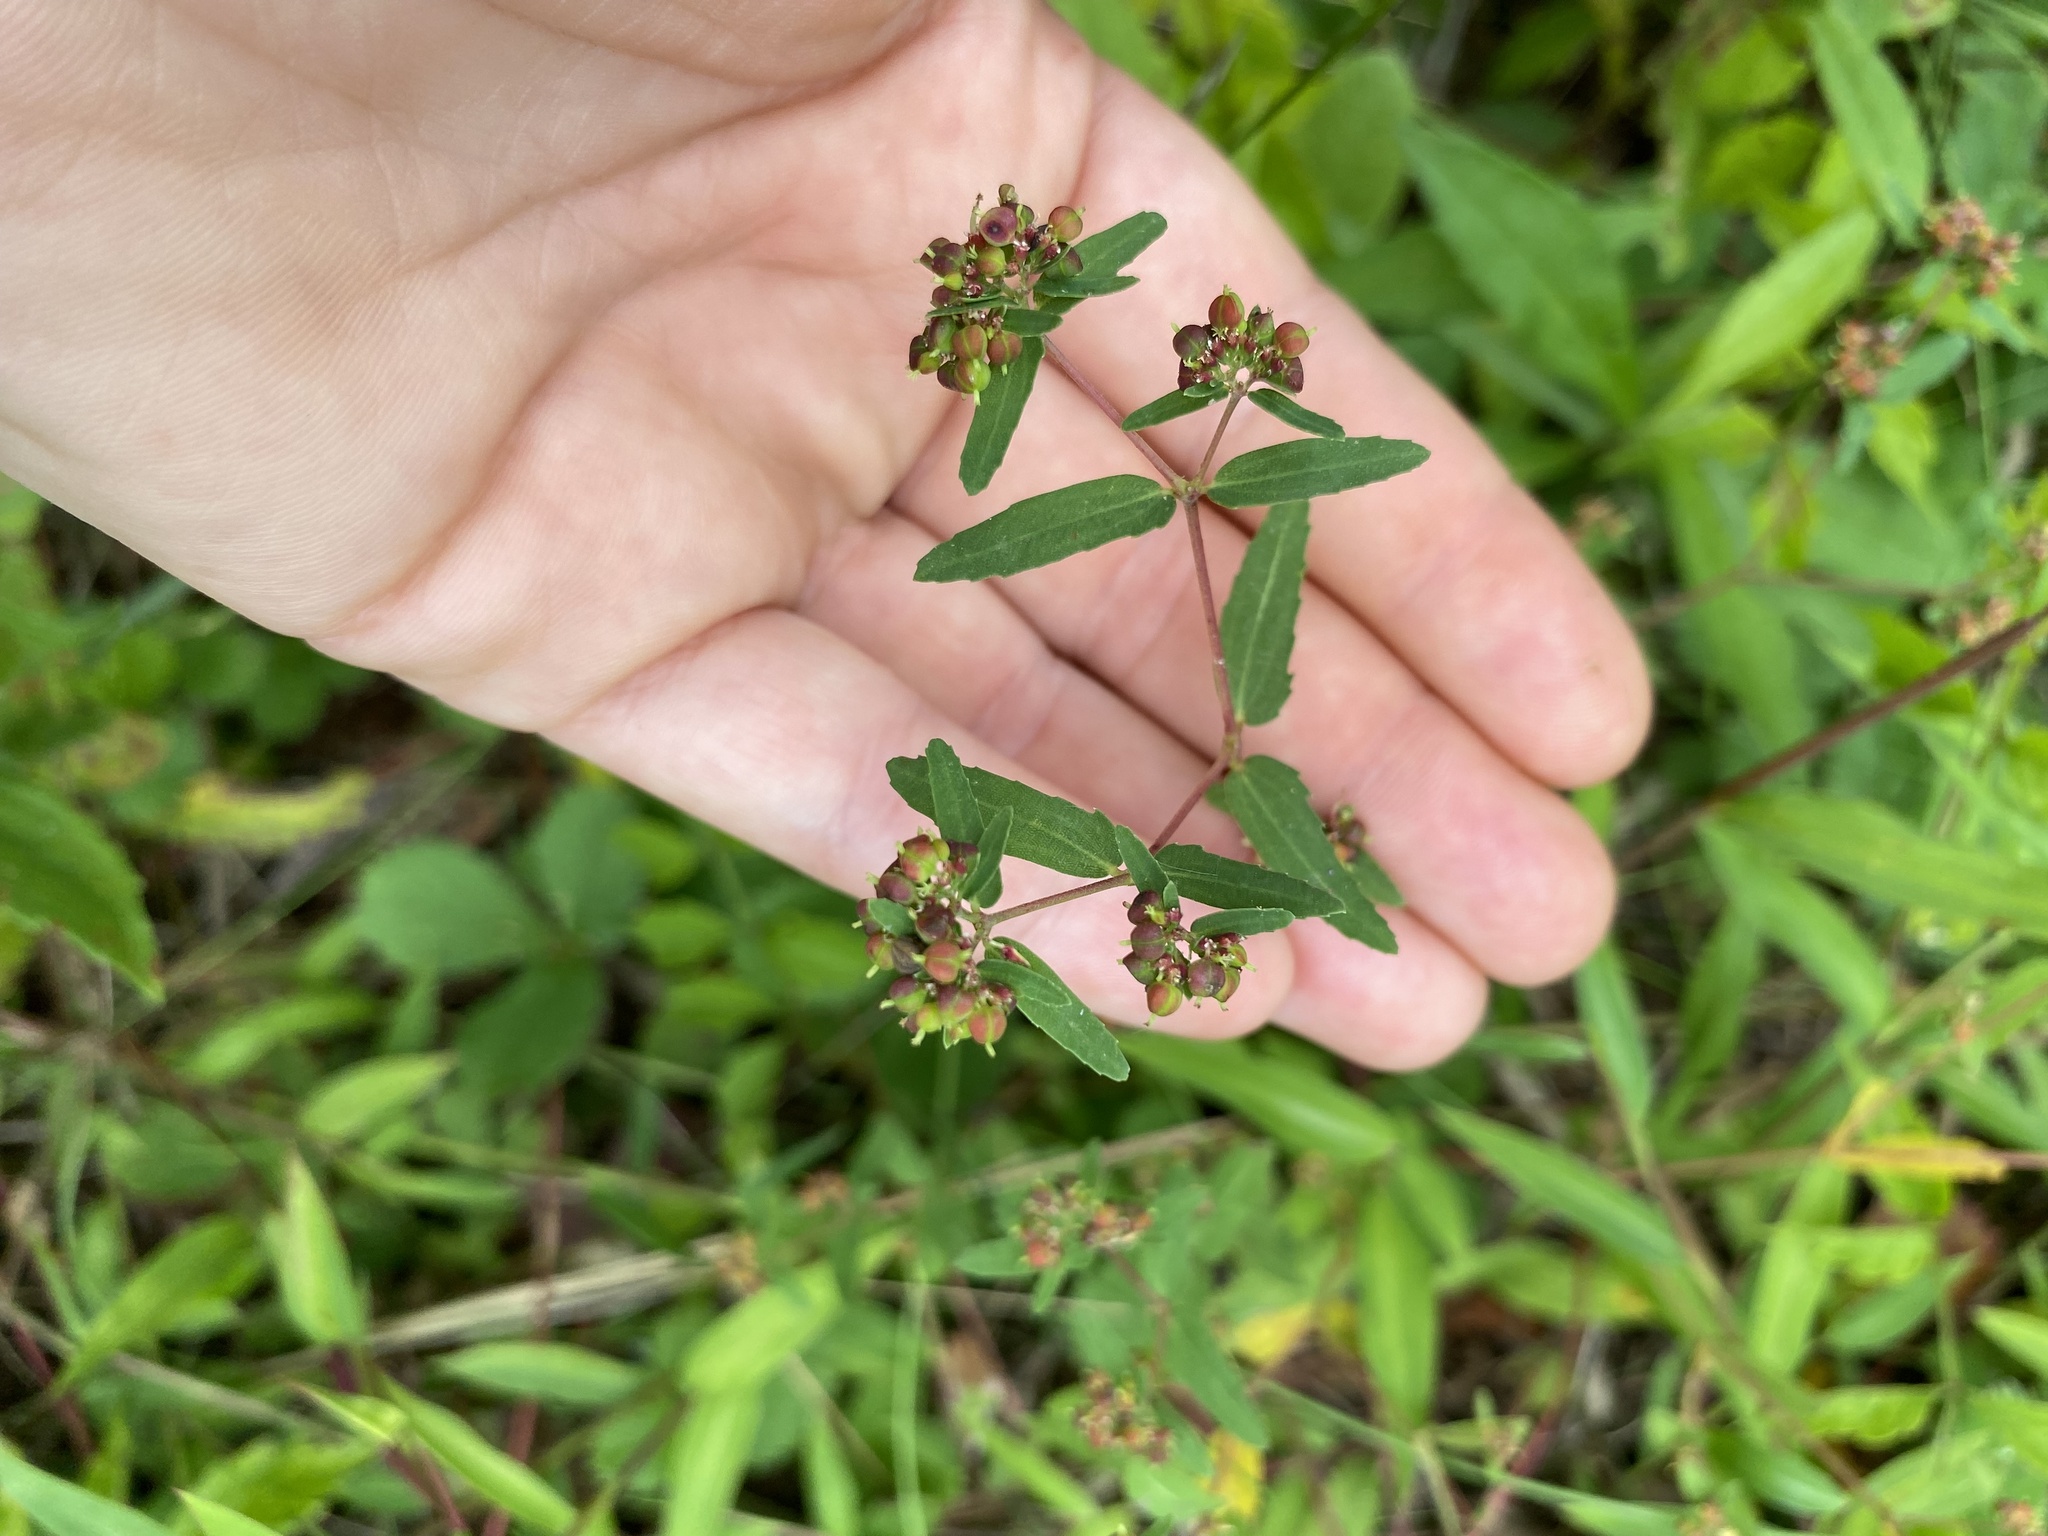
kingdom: Plantae
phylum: Tracheophyta
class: Magnoliopsida
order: Malpighiales
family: Euphorbiaceae
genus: Euphorbia
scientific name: Euphorbia nutans
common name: Eyebane
